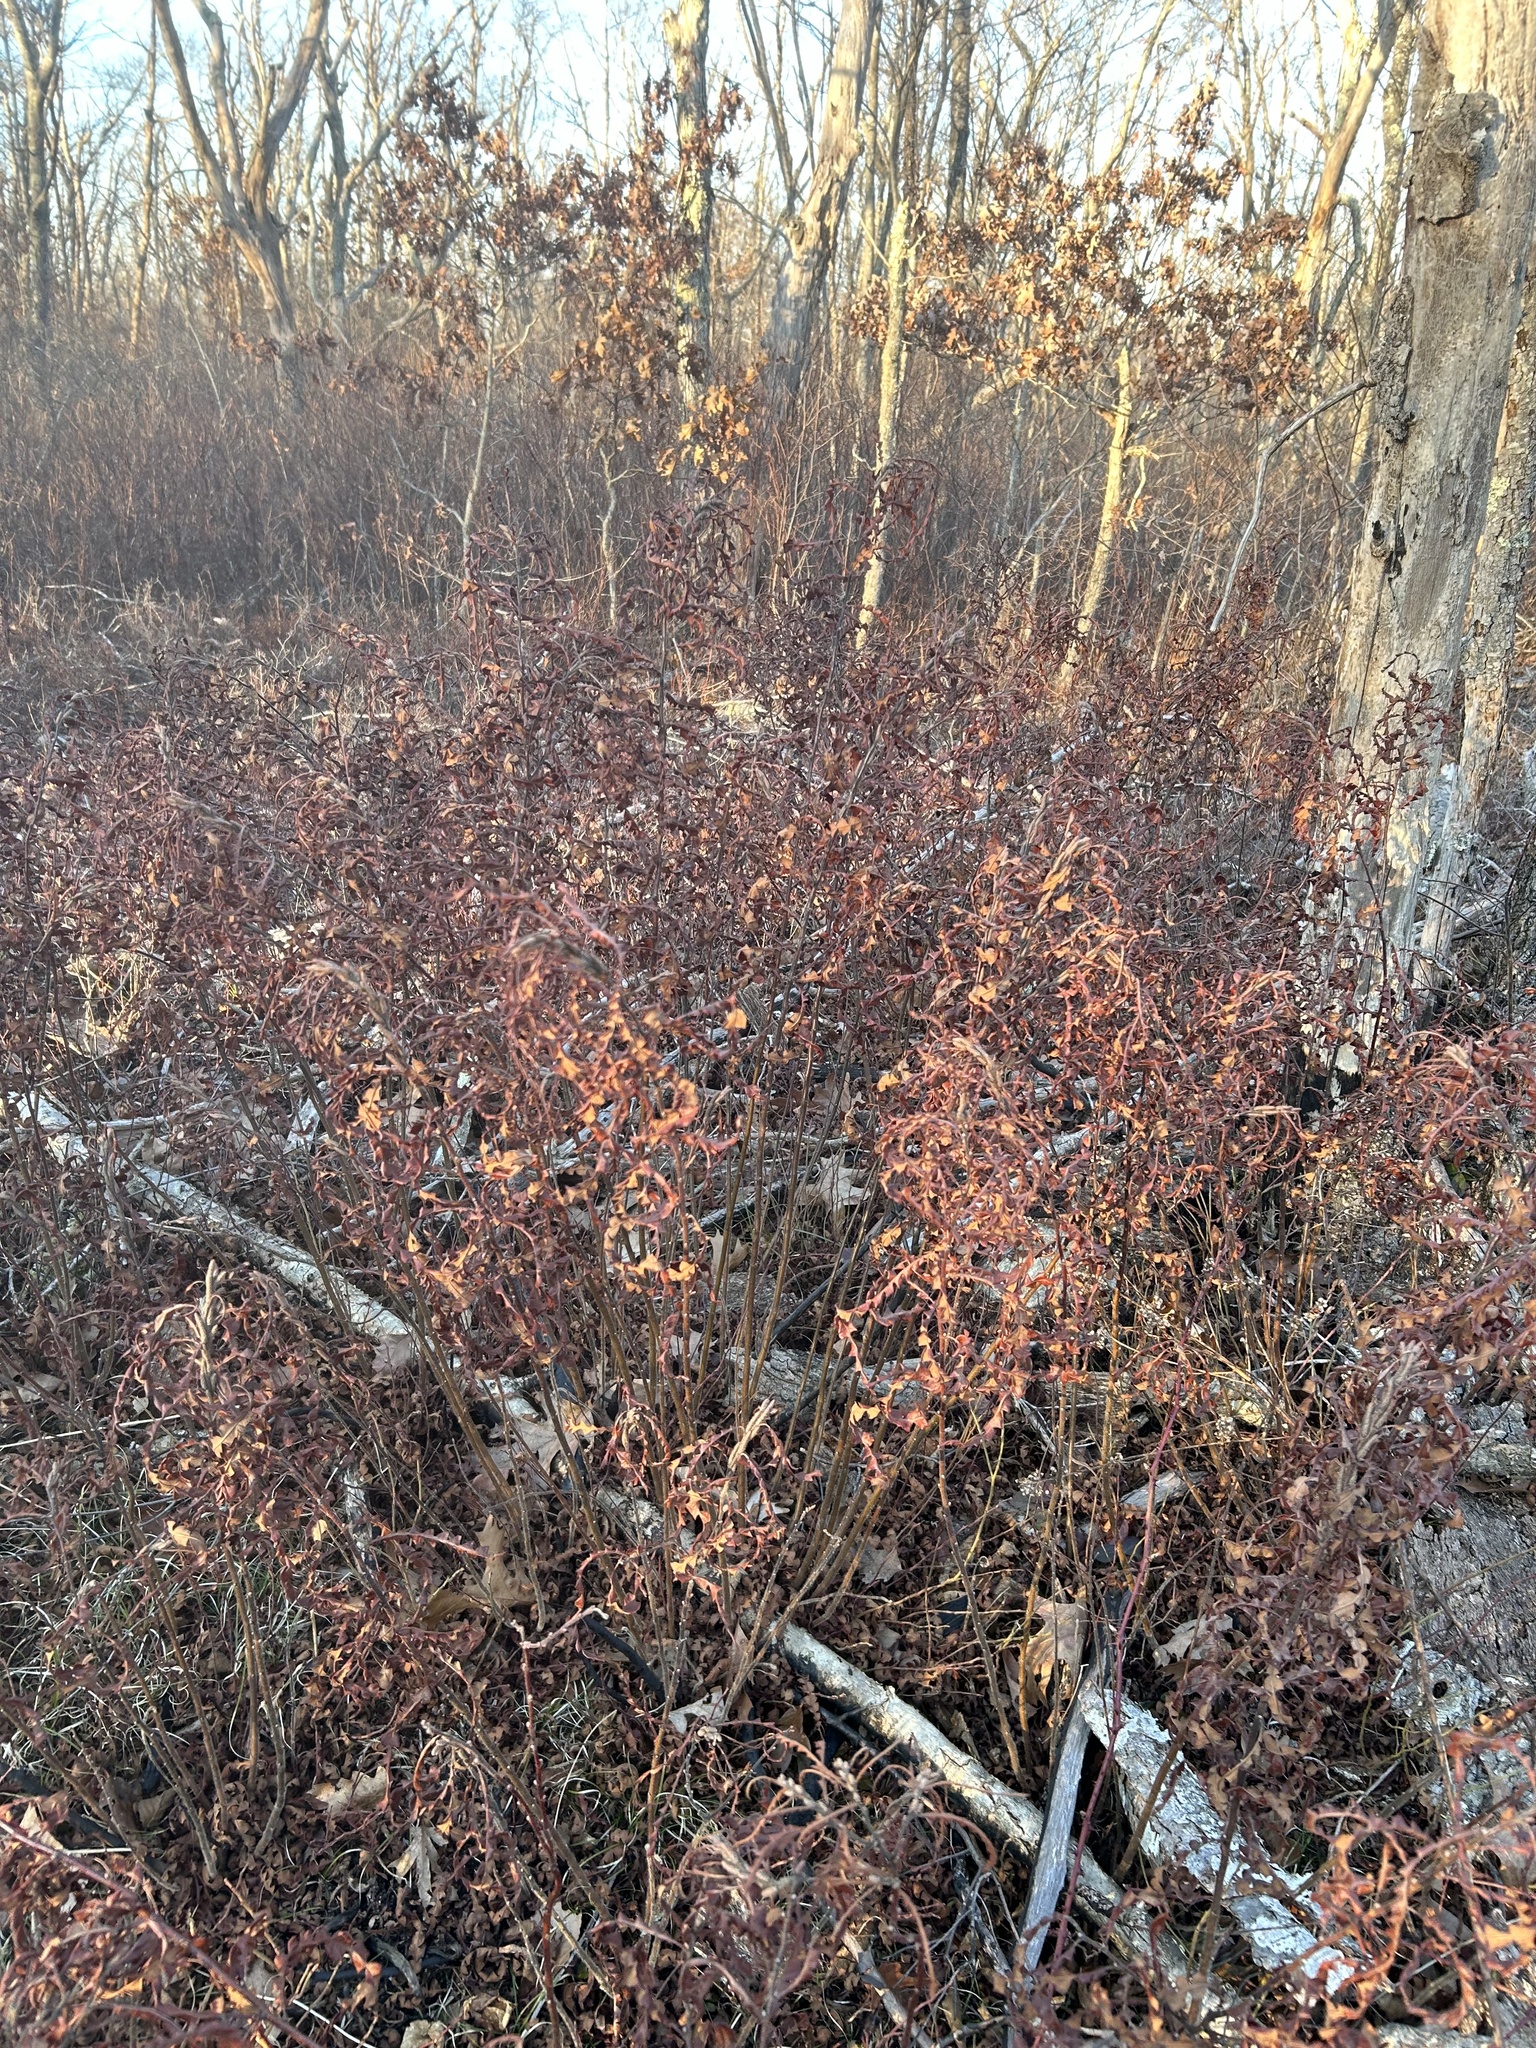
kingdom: Plantae
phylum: Tracheophyta
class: Magnoliopsida
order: Fagales
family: Myricaceae
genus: Comptonia
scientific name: Comptonia peregrina
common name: Sweet-fern
